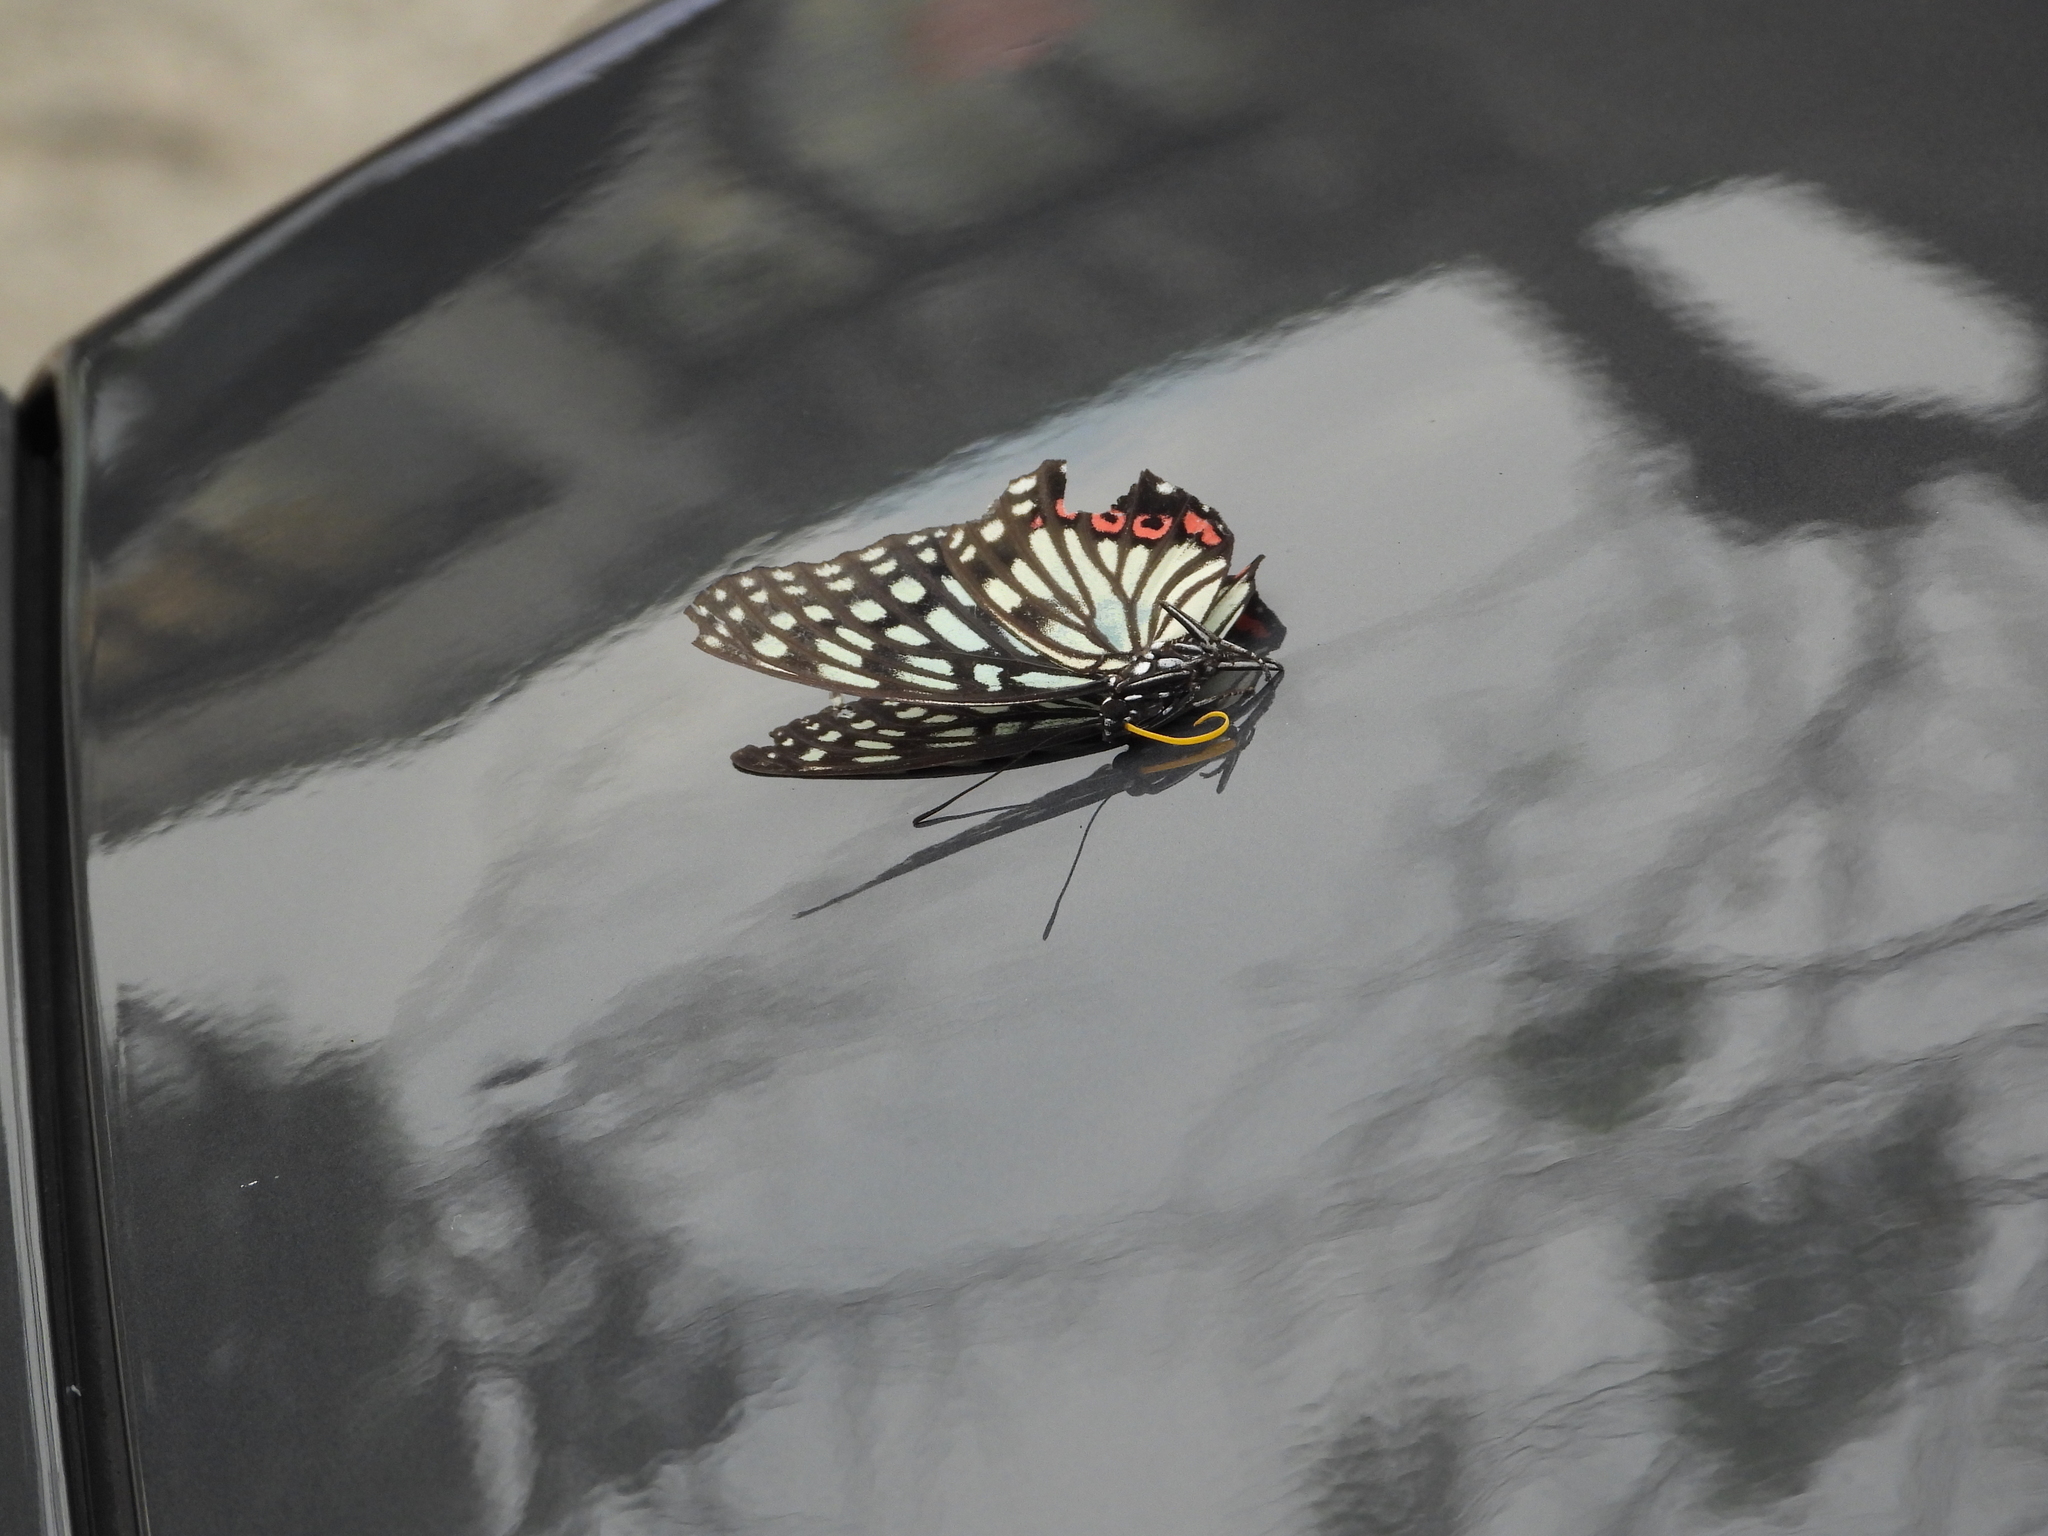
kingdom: Animalia
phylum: Arthropoda
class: Insecta
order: Lepidoptera
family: Nymphalidae
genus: Hestina
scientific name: Hestina assimilis
